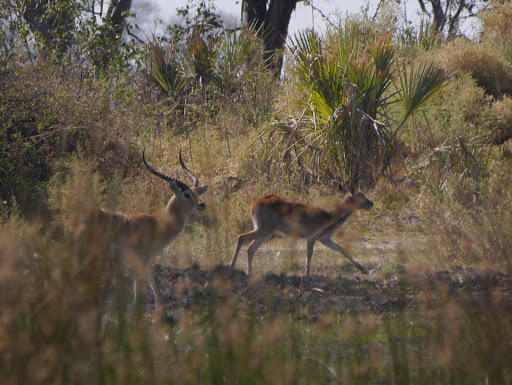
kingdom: Animalia
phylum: Chordata
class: Mammalia
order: Artiodactyla
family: Bovidae
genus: Kobus
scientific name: Kobus leche
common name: Lechwe
